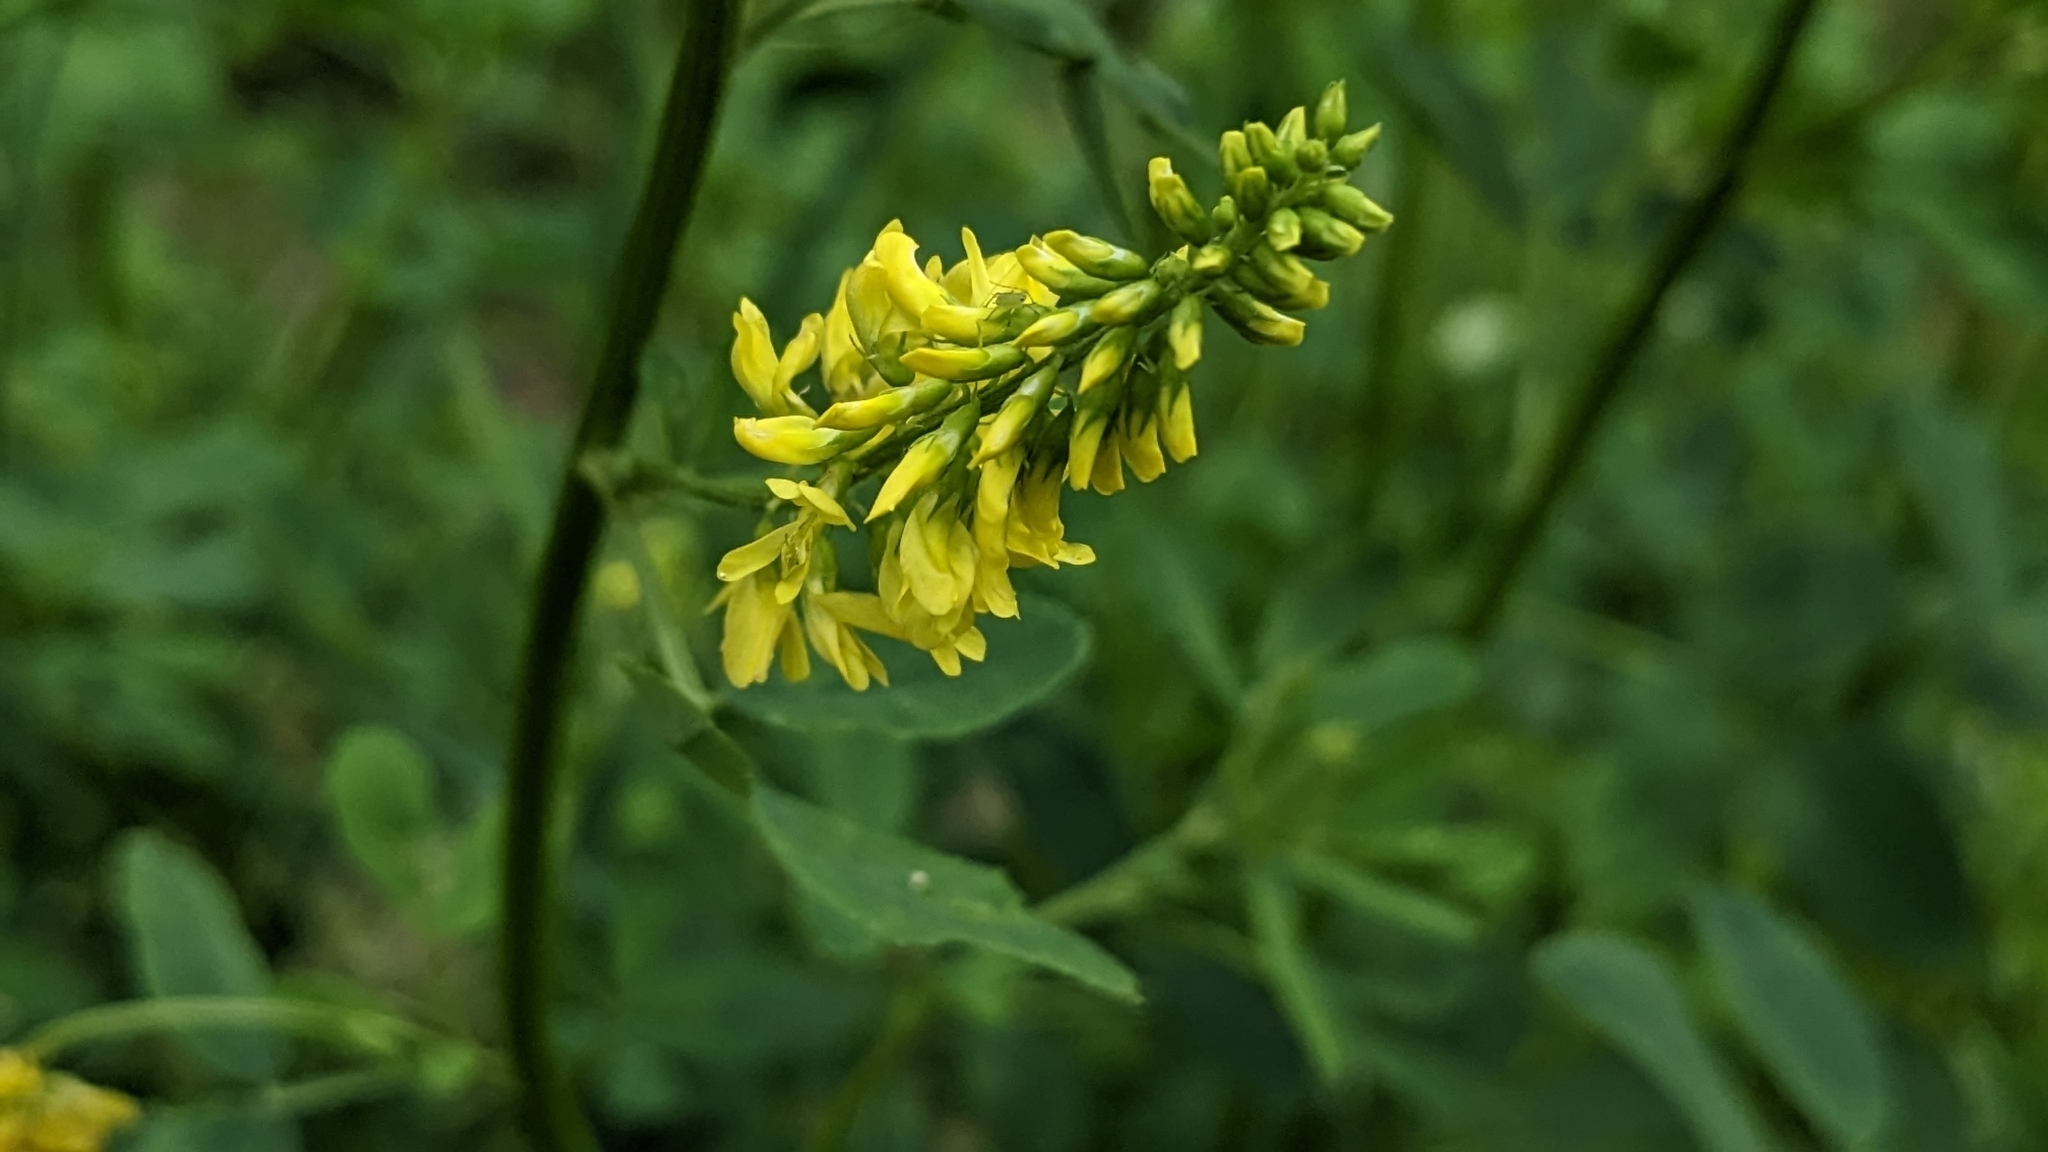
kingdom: Plantae
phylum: Tracheophyta
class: Magnoliopsida
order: Fabales
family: Fabaceae
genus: Melilotus
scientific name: Melilotus officinalis
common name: Sweetclover
